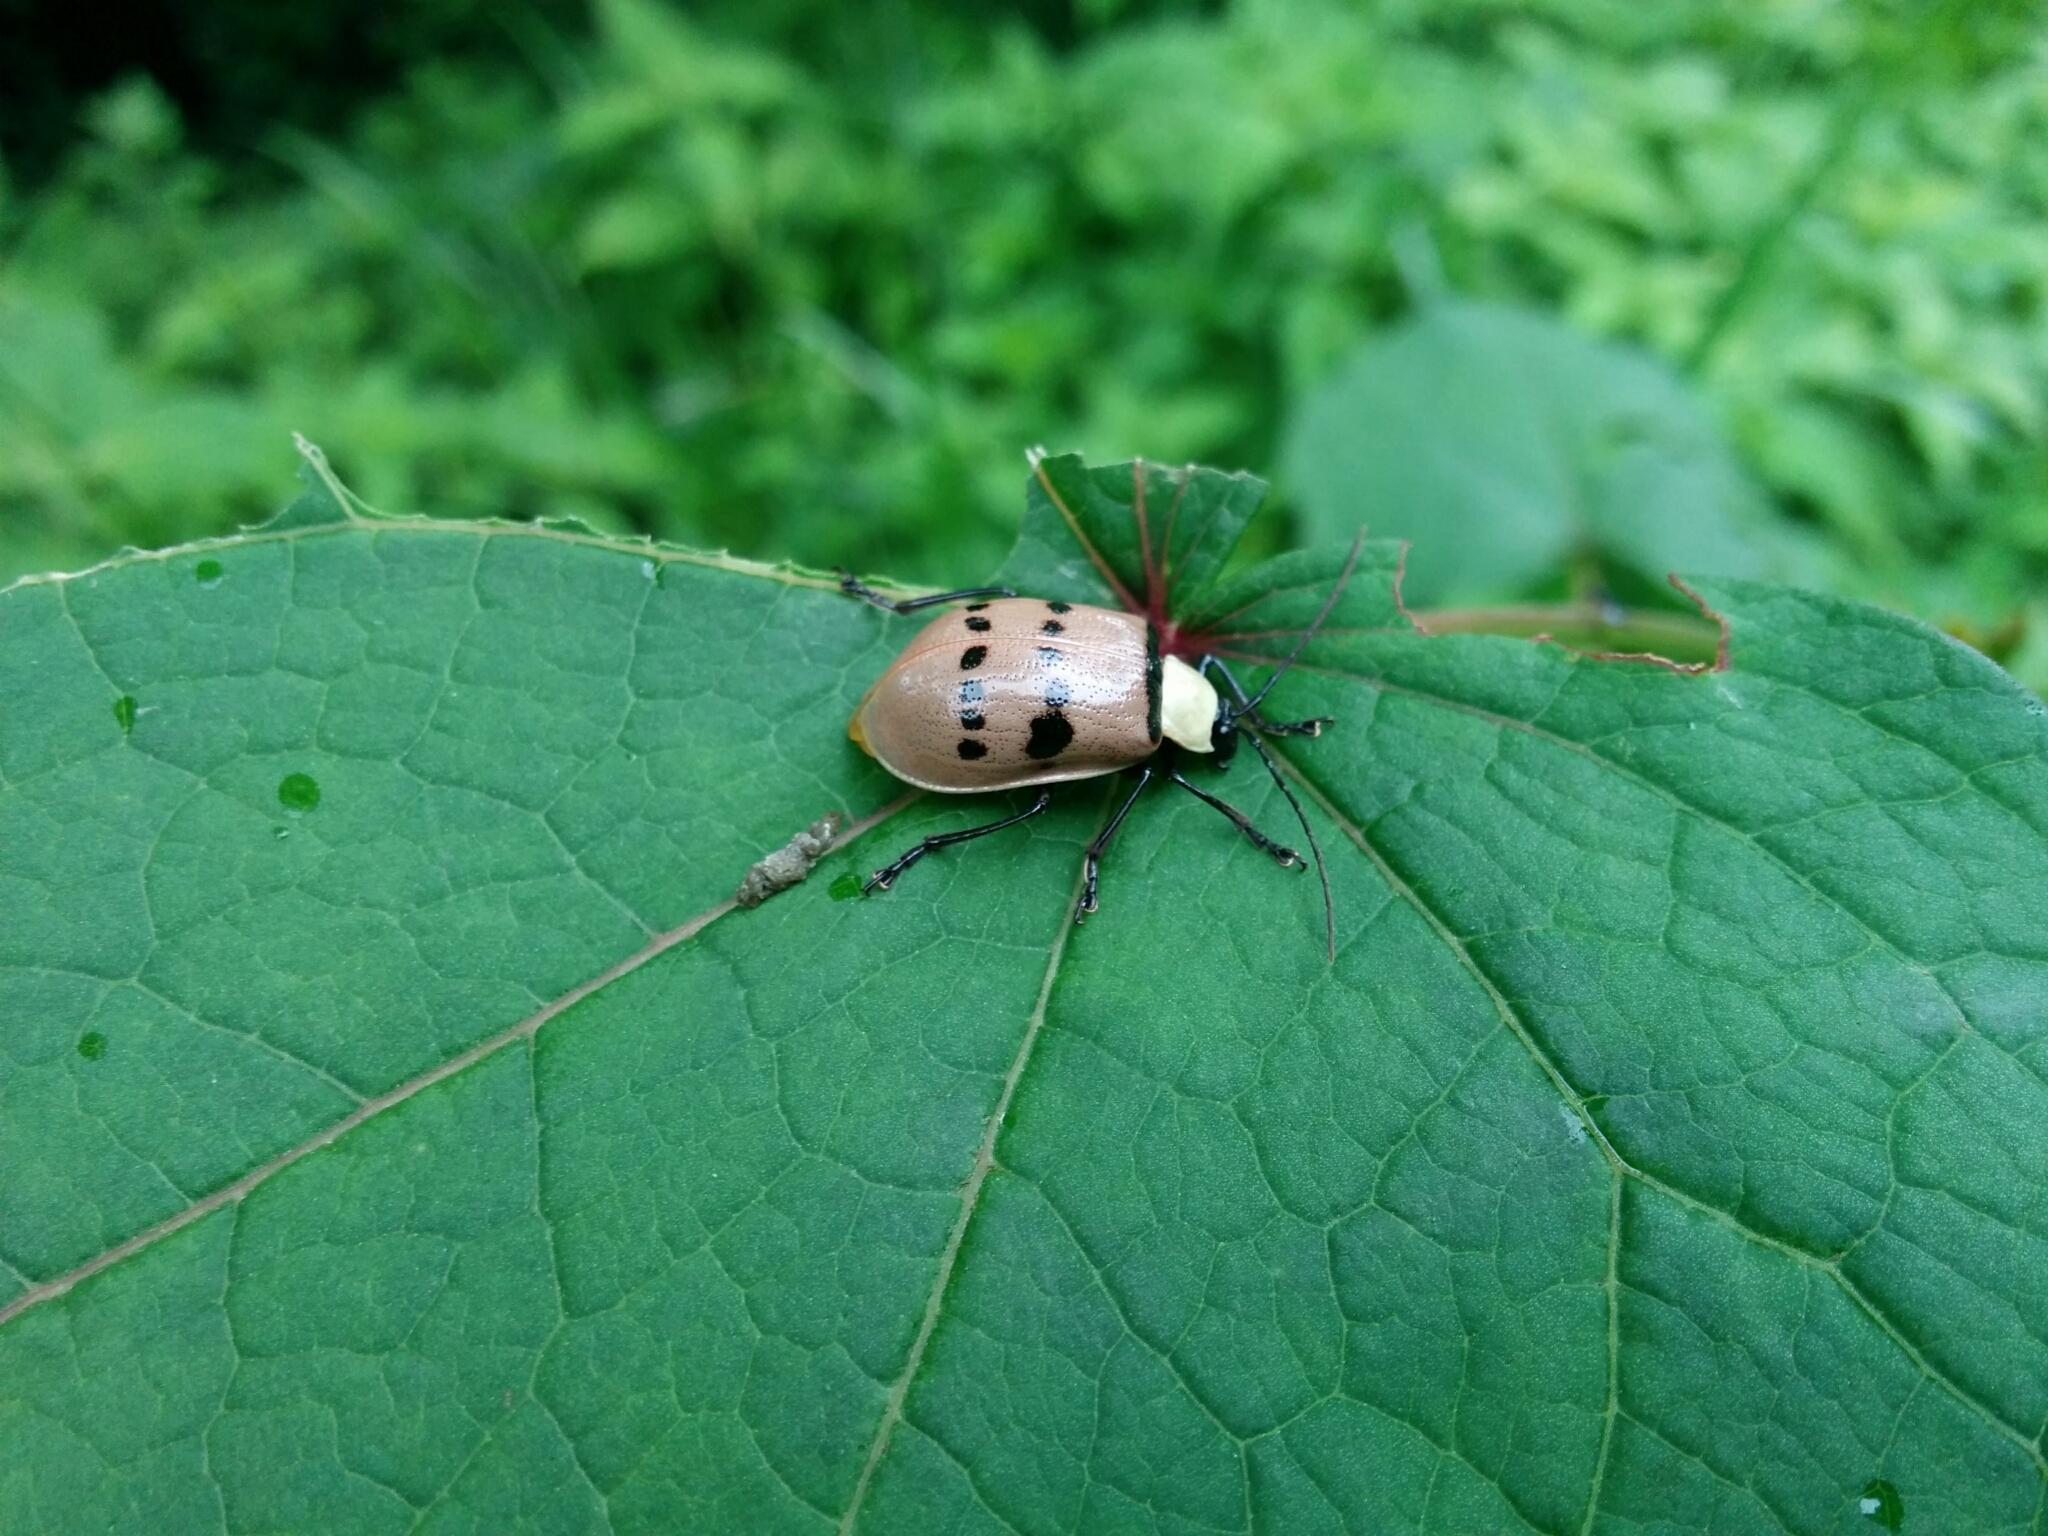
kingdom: Animalia
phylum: Arthropoda
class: Insecta
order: Coleoptera
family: Chrysomelidae
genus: Meristata
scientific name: Meristata
